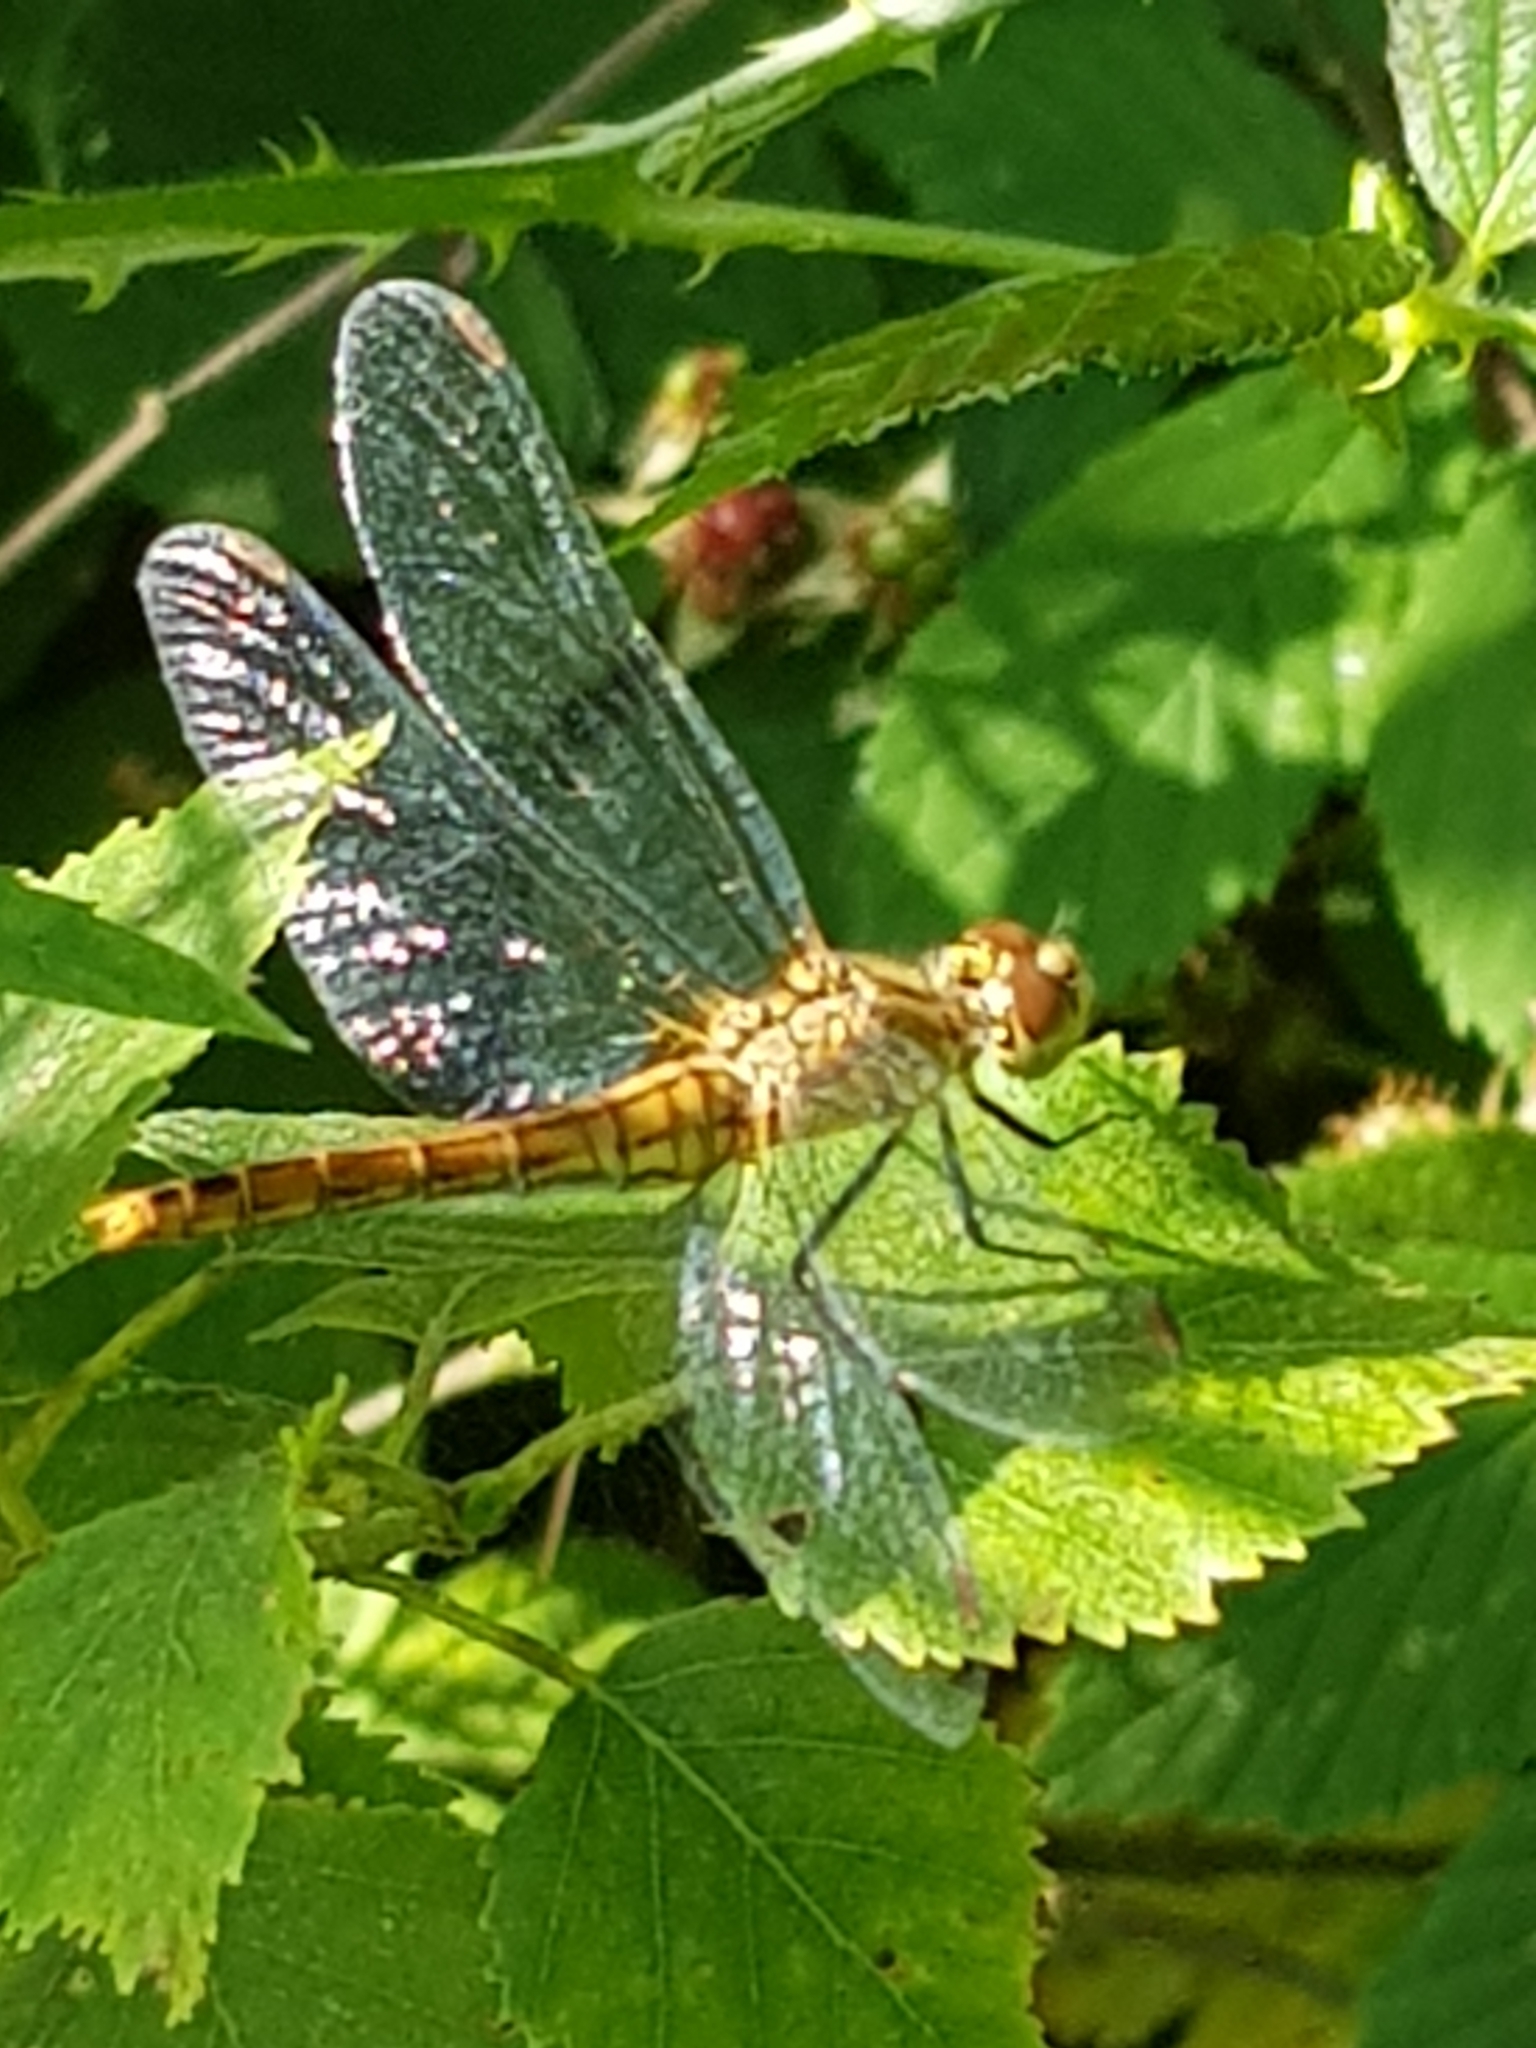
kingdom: Animalia
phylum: Arthropoda
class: Insecta
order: Odonata
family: Libellulidae
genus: Sympetrum
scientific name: Sympetrum sanguineum
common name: Ruddy darter
